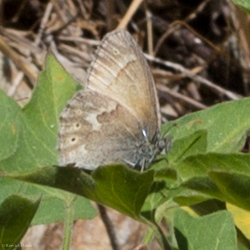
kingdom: Animalia
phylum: Arthropoda
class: Insecta
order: Lepidoptera
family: Nymphalidae
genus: Coenonympha
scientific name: Coenonympha california
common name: Common ringlet
